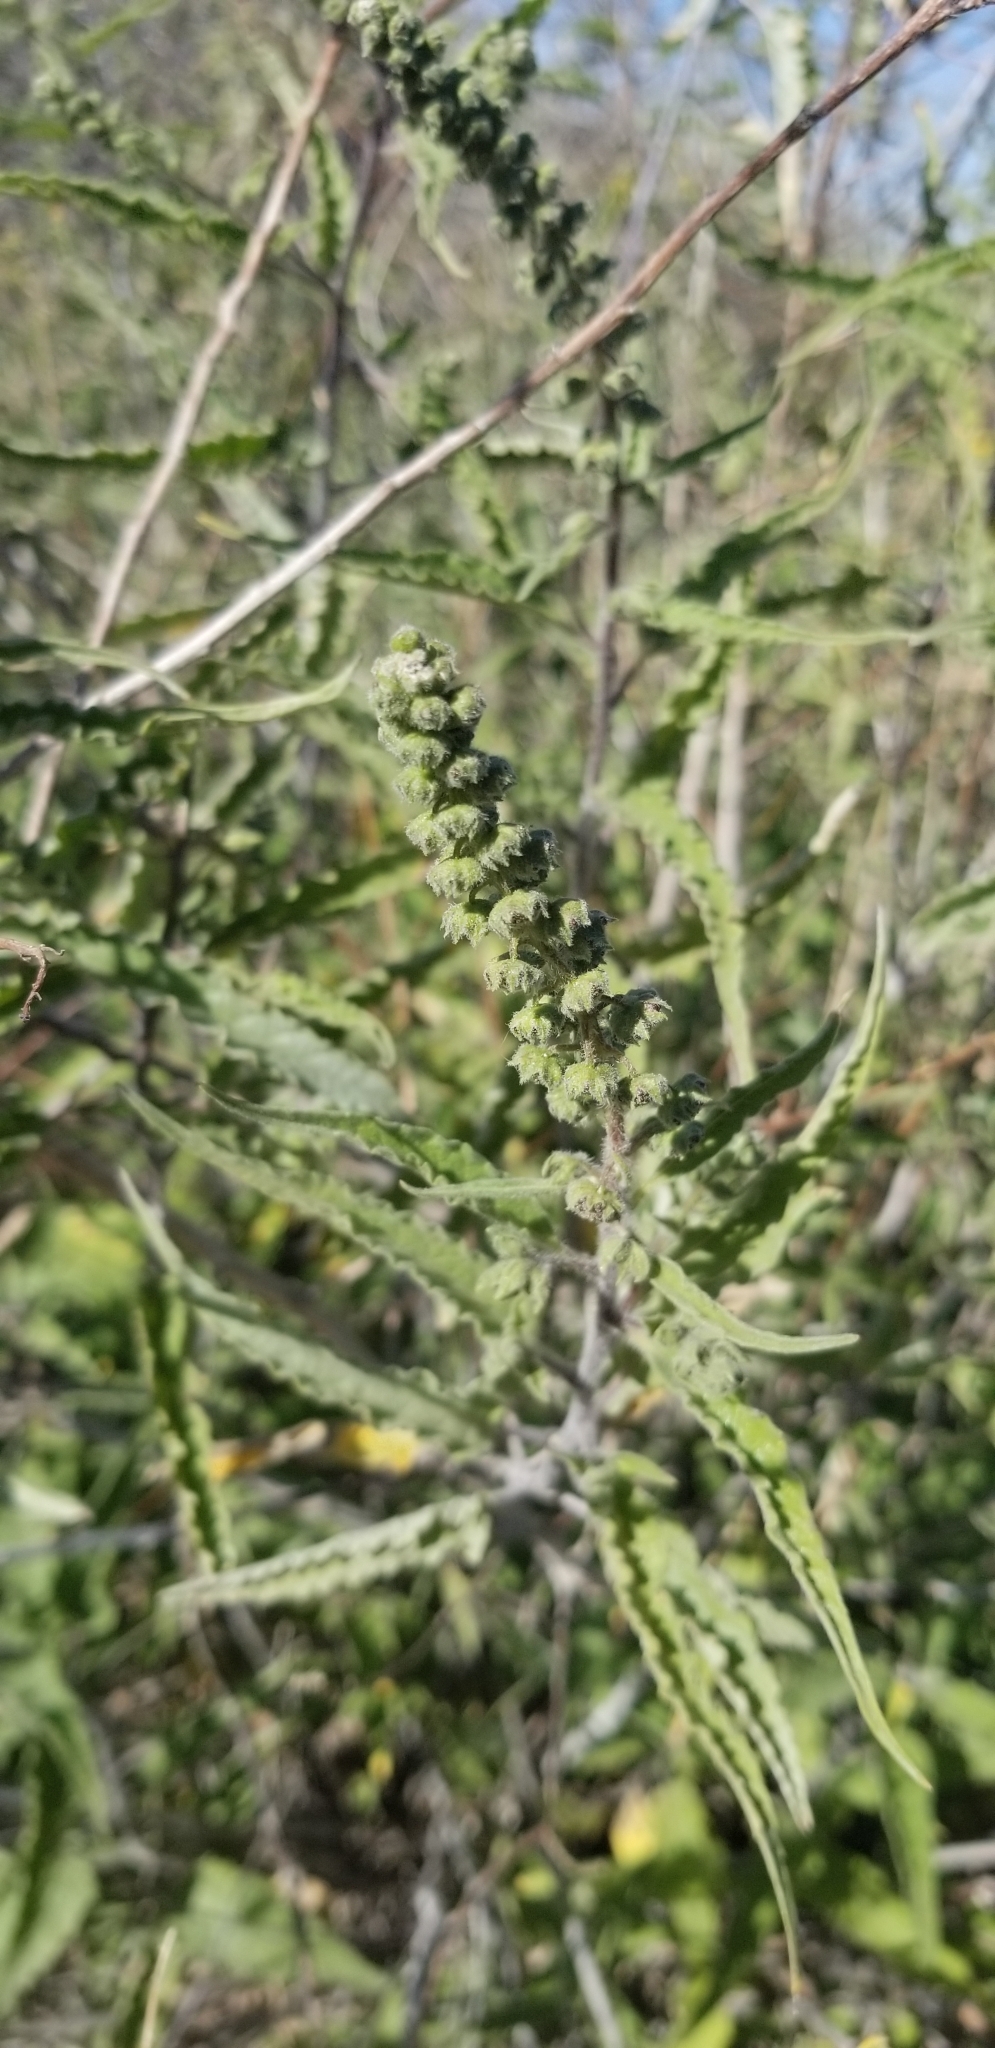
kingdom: Plantae
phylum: Tracheophyta
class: Magnoliopsida
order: Asterales
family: Asteraceae
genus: Ambrosia
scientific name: Ambrosia ambrosioides
